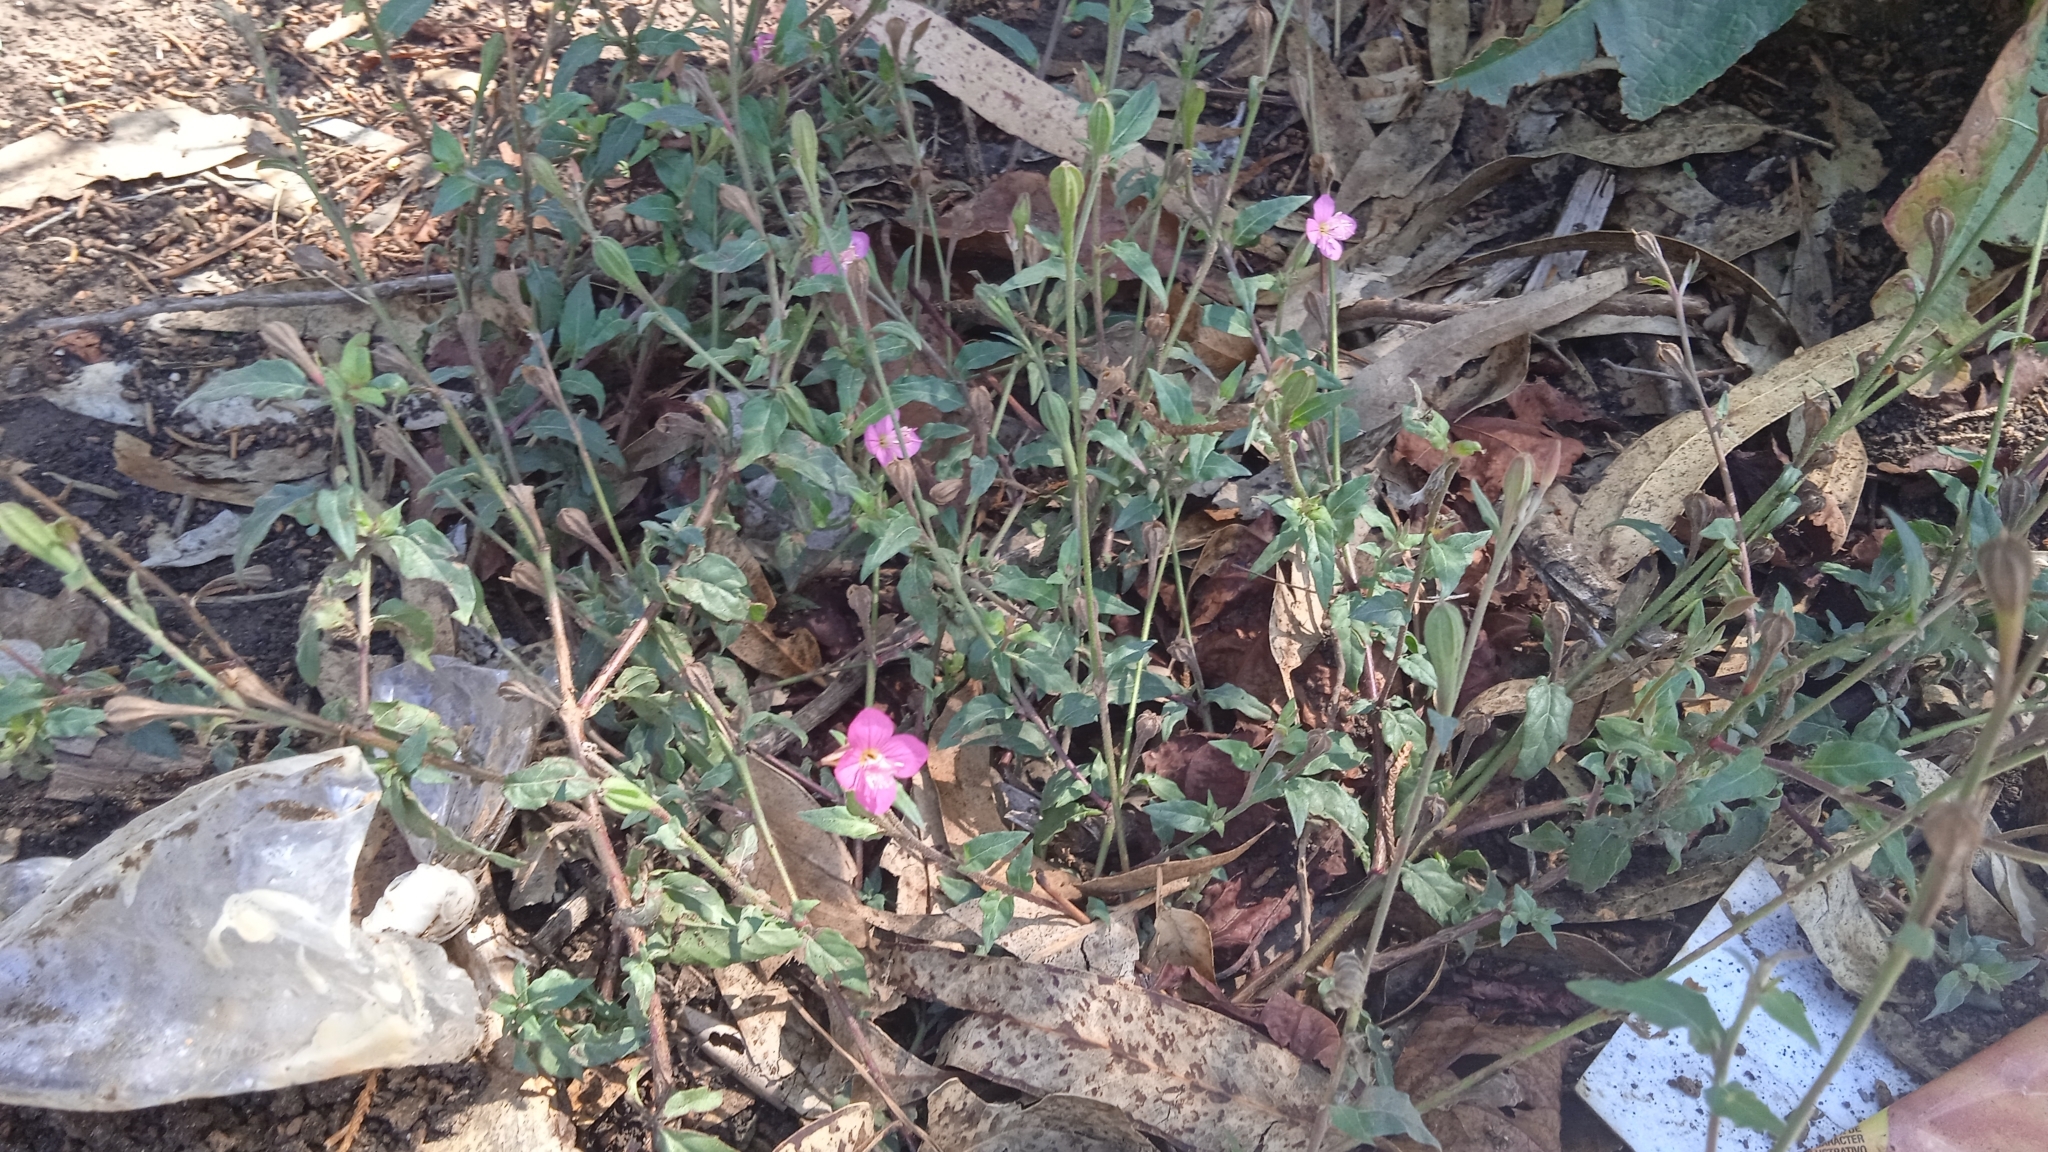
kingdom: Plantae
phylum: Tracheophyta
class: Magnoliopsida
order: Myrtales
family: Onagraceae
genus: Oenothera
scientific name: Oenothera rosea
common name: Rosy evening-primrose
